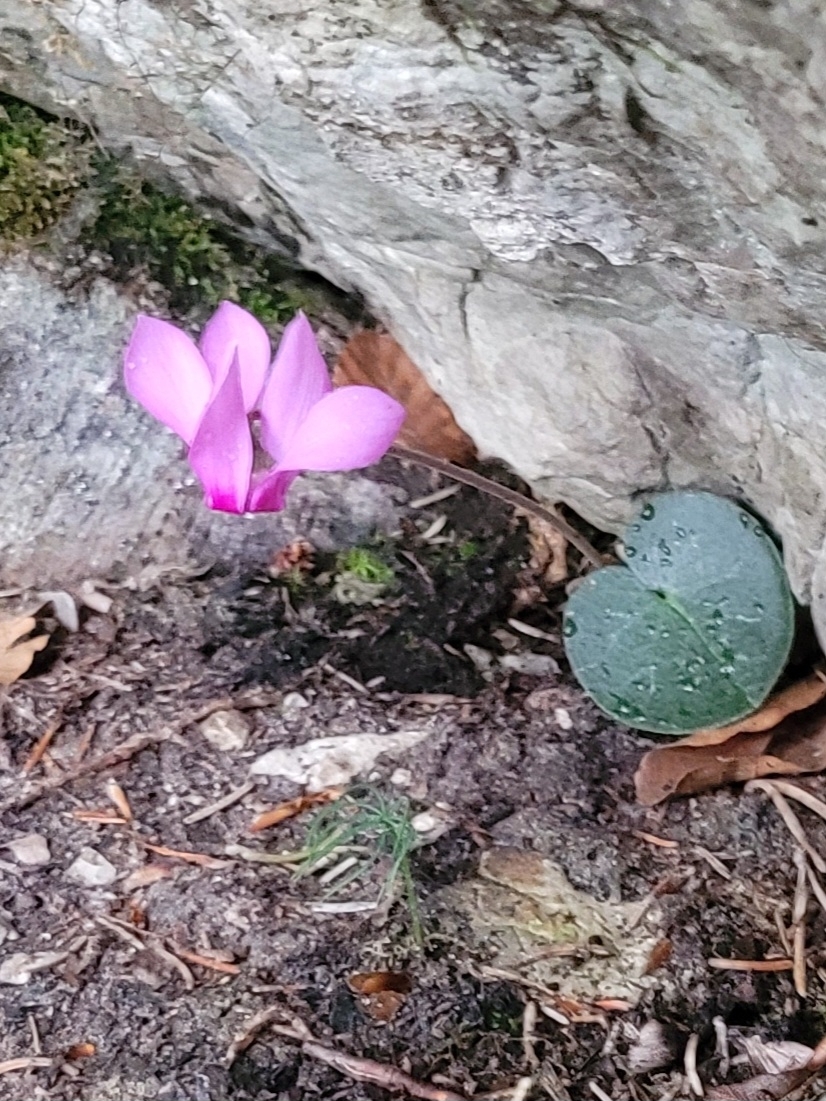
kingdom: Plantae
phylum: Tracheophyta
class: Magnoliopsida
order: Ericales
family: Primulaceae
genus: Cyclamen
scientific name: Cyclamen purpurascens
